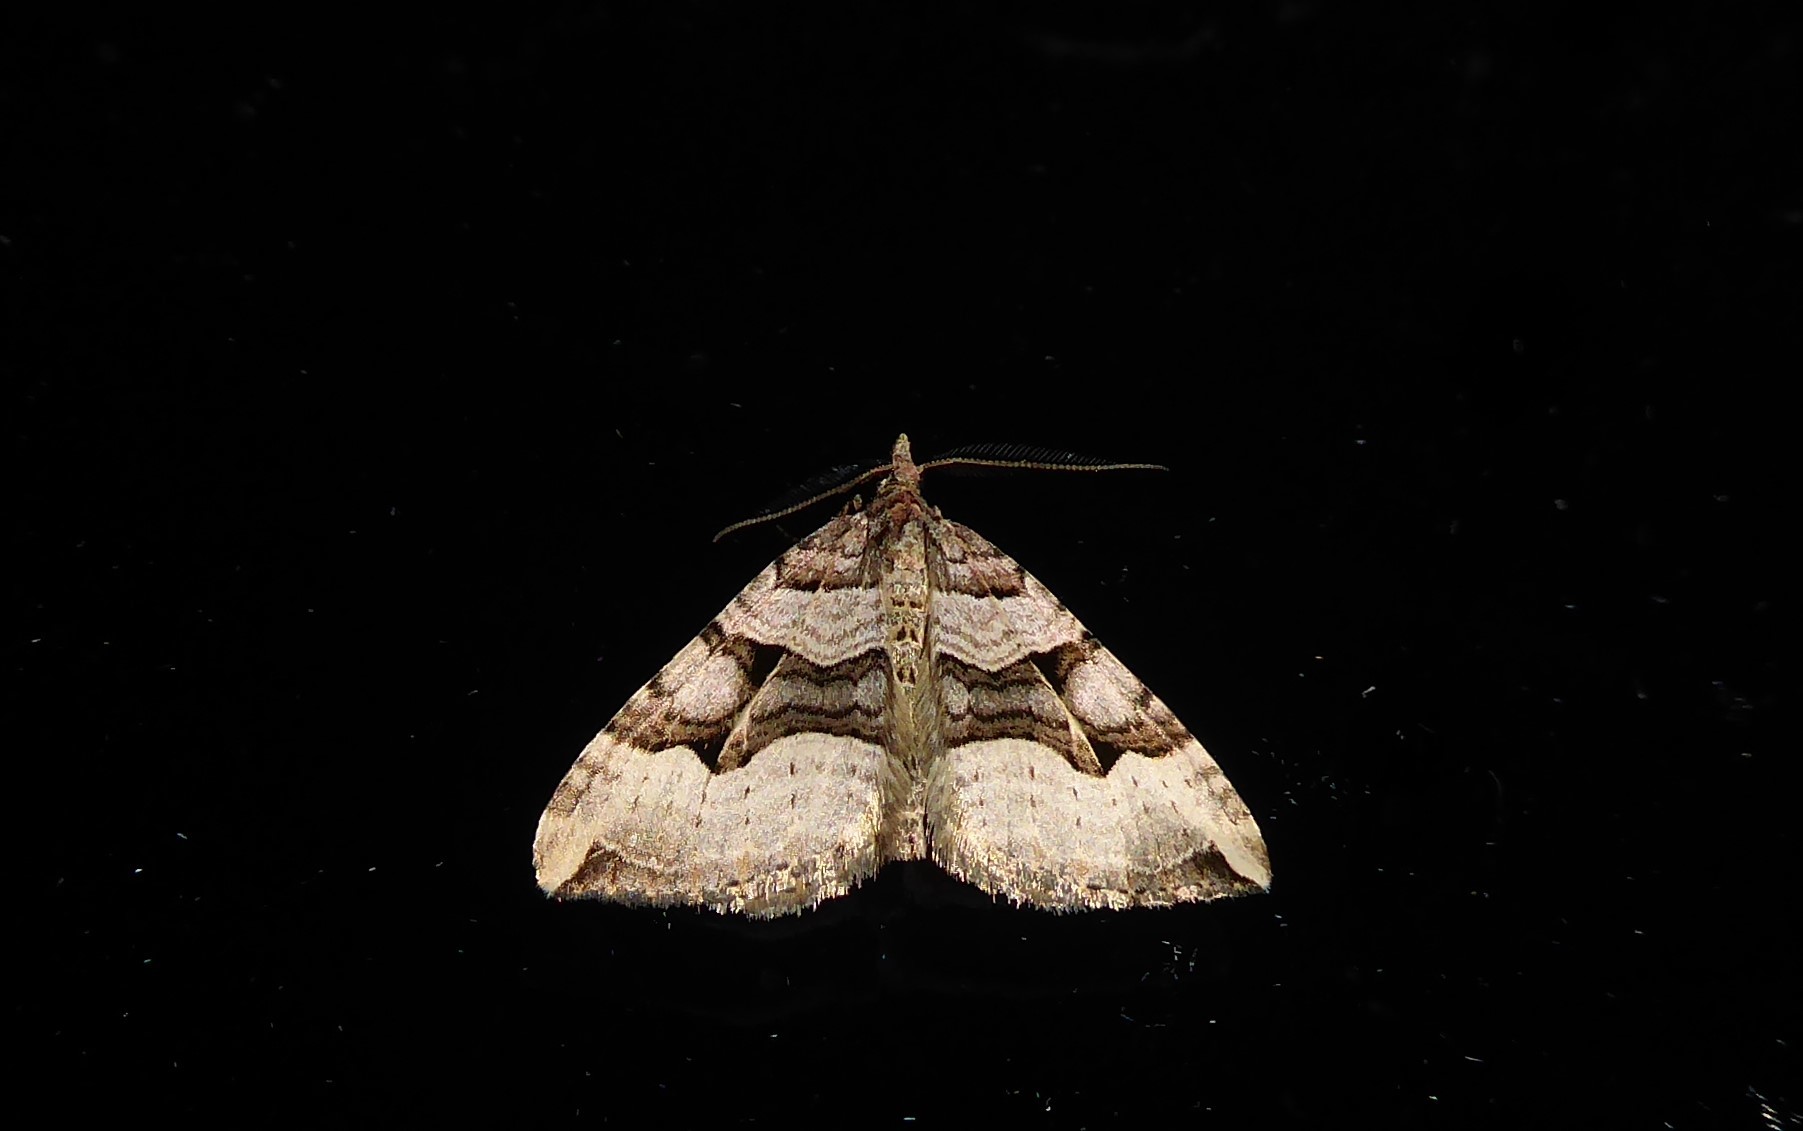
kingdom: Animalia
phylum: Arthropoda
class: Insecta
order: Lepidoptera
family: Geometridae
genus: Xanthorhoe
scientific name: Xanthorhoe semifissata
